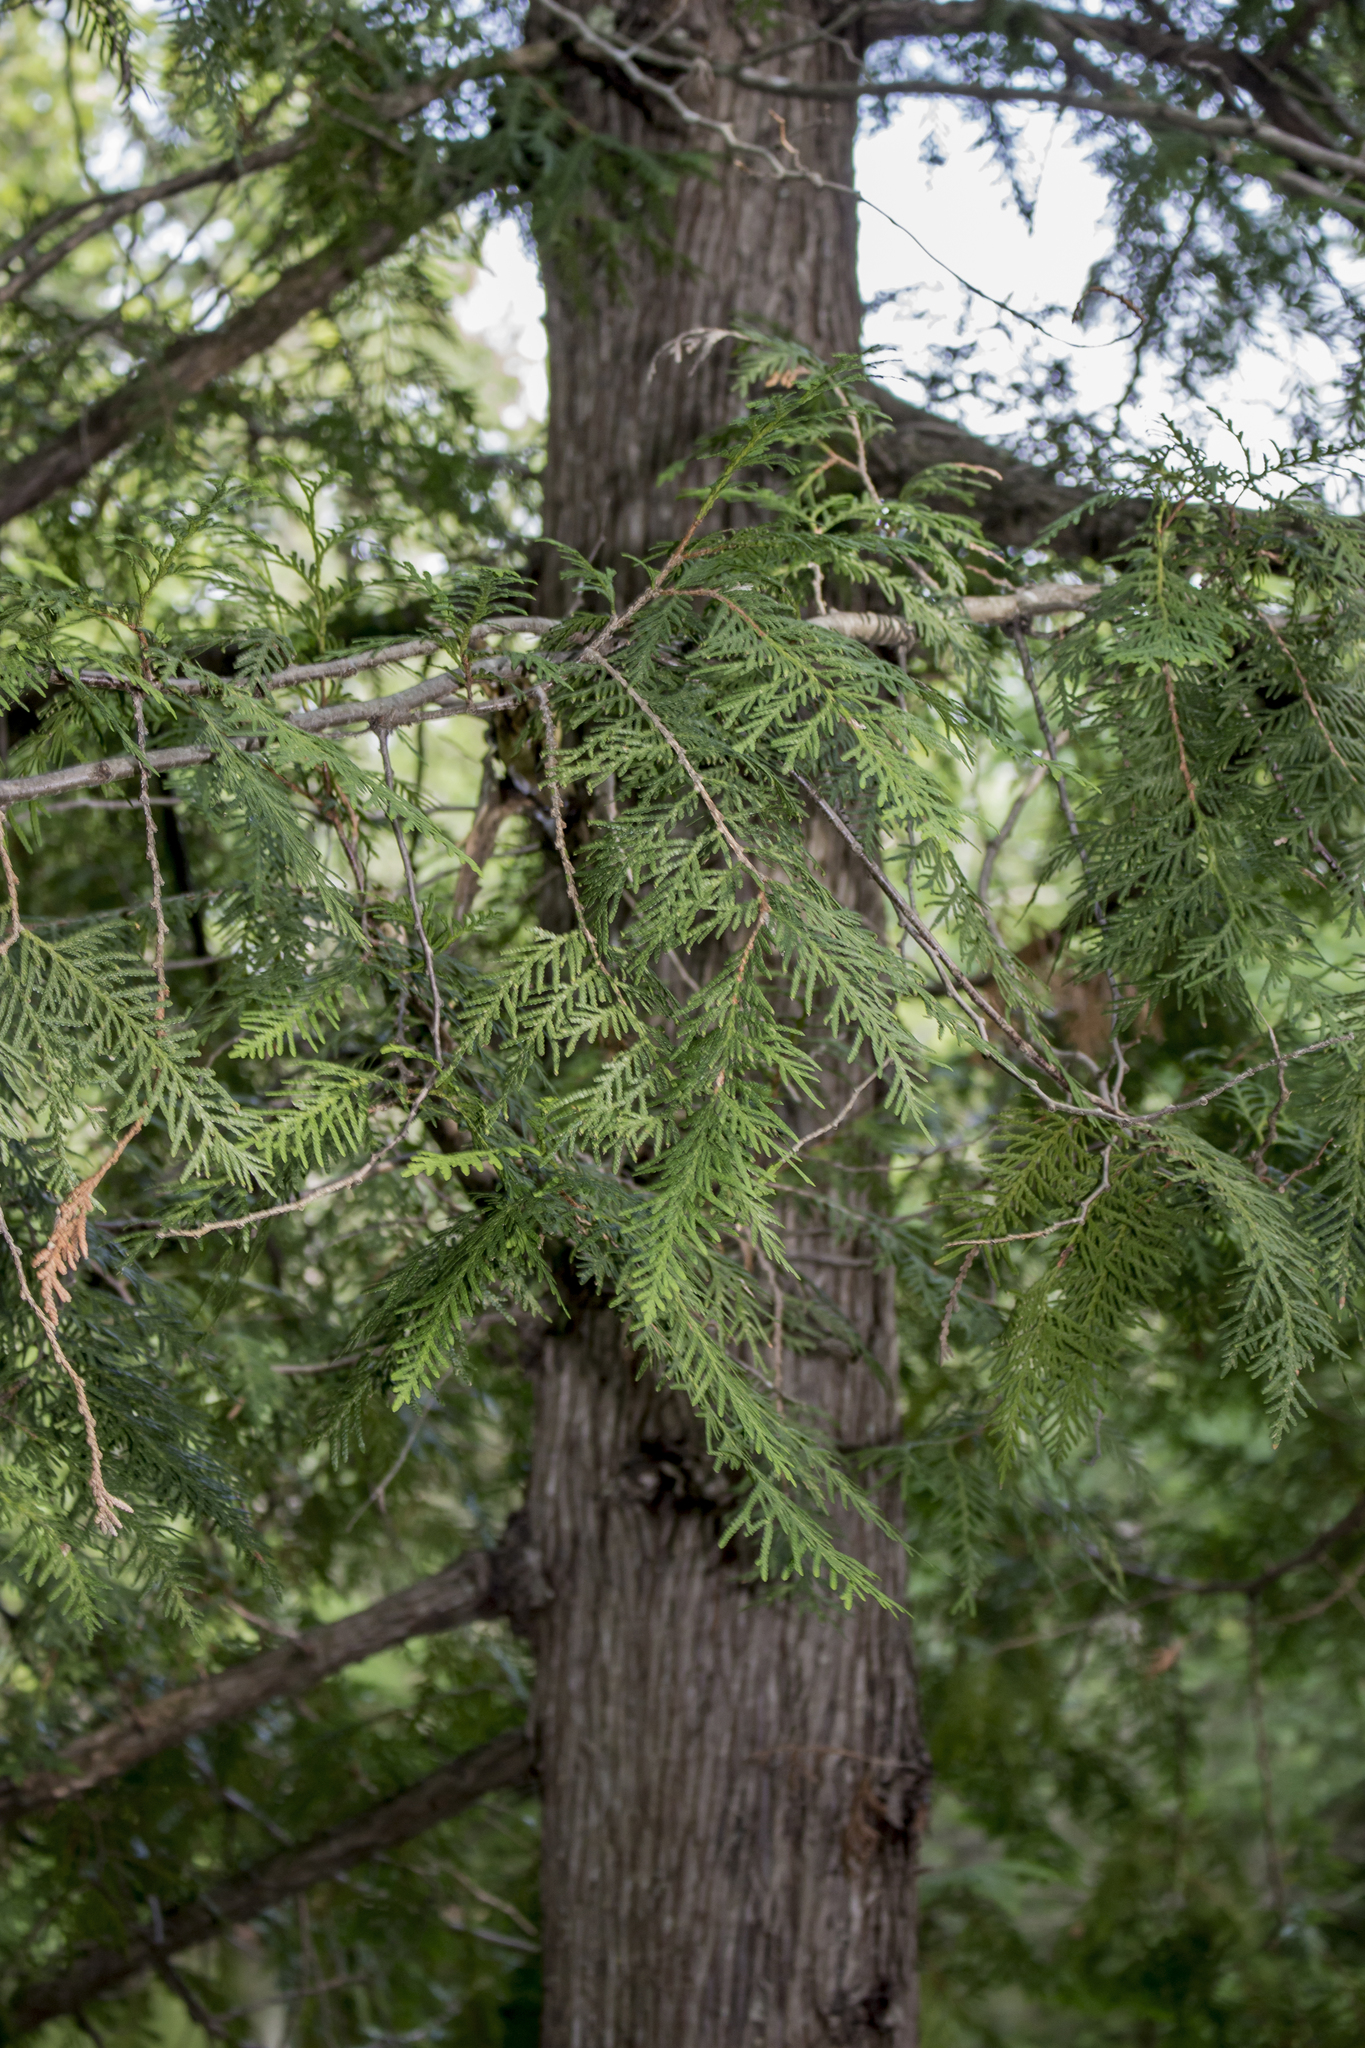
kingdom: Plantae
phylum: Tracheophyta
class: Pinopsida
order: Pinales
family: Cupressaceae
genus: Thuja
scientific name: Thuja occidentalis
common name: Northern white-cedar
